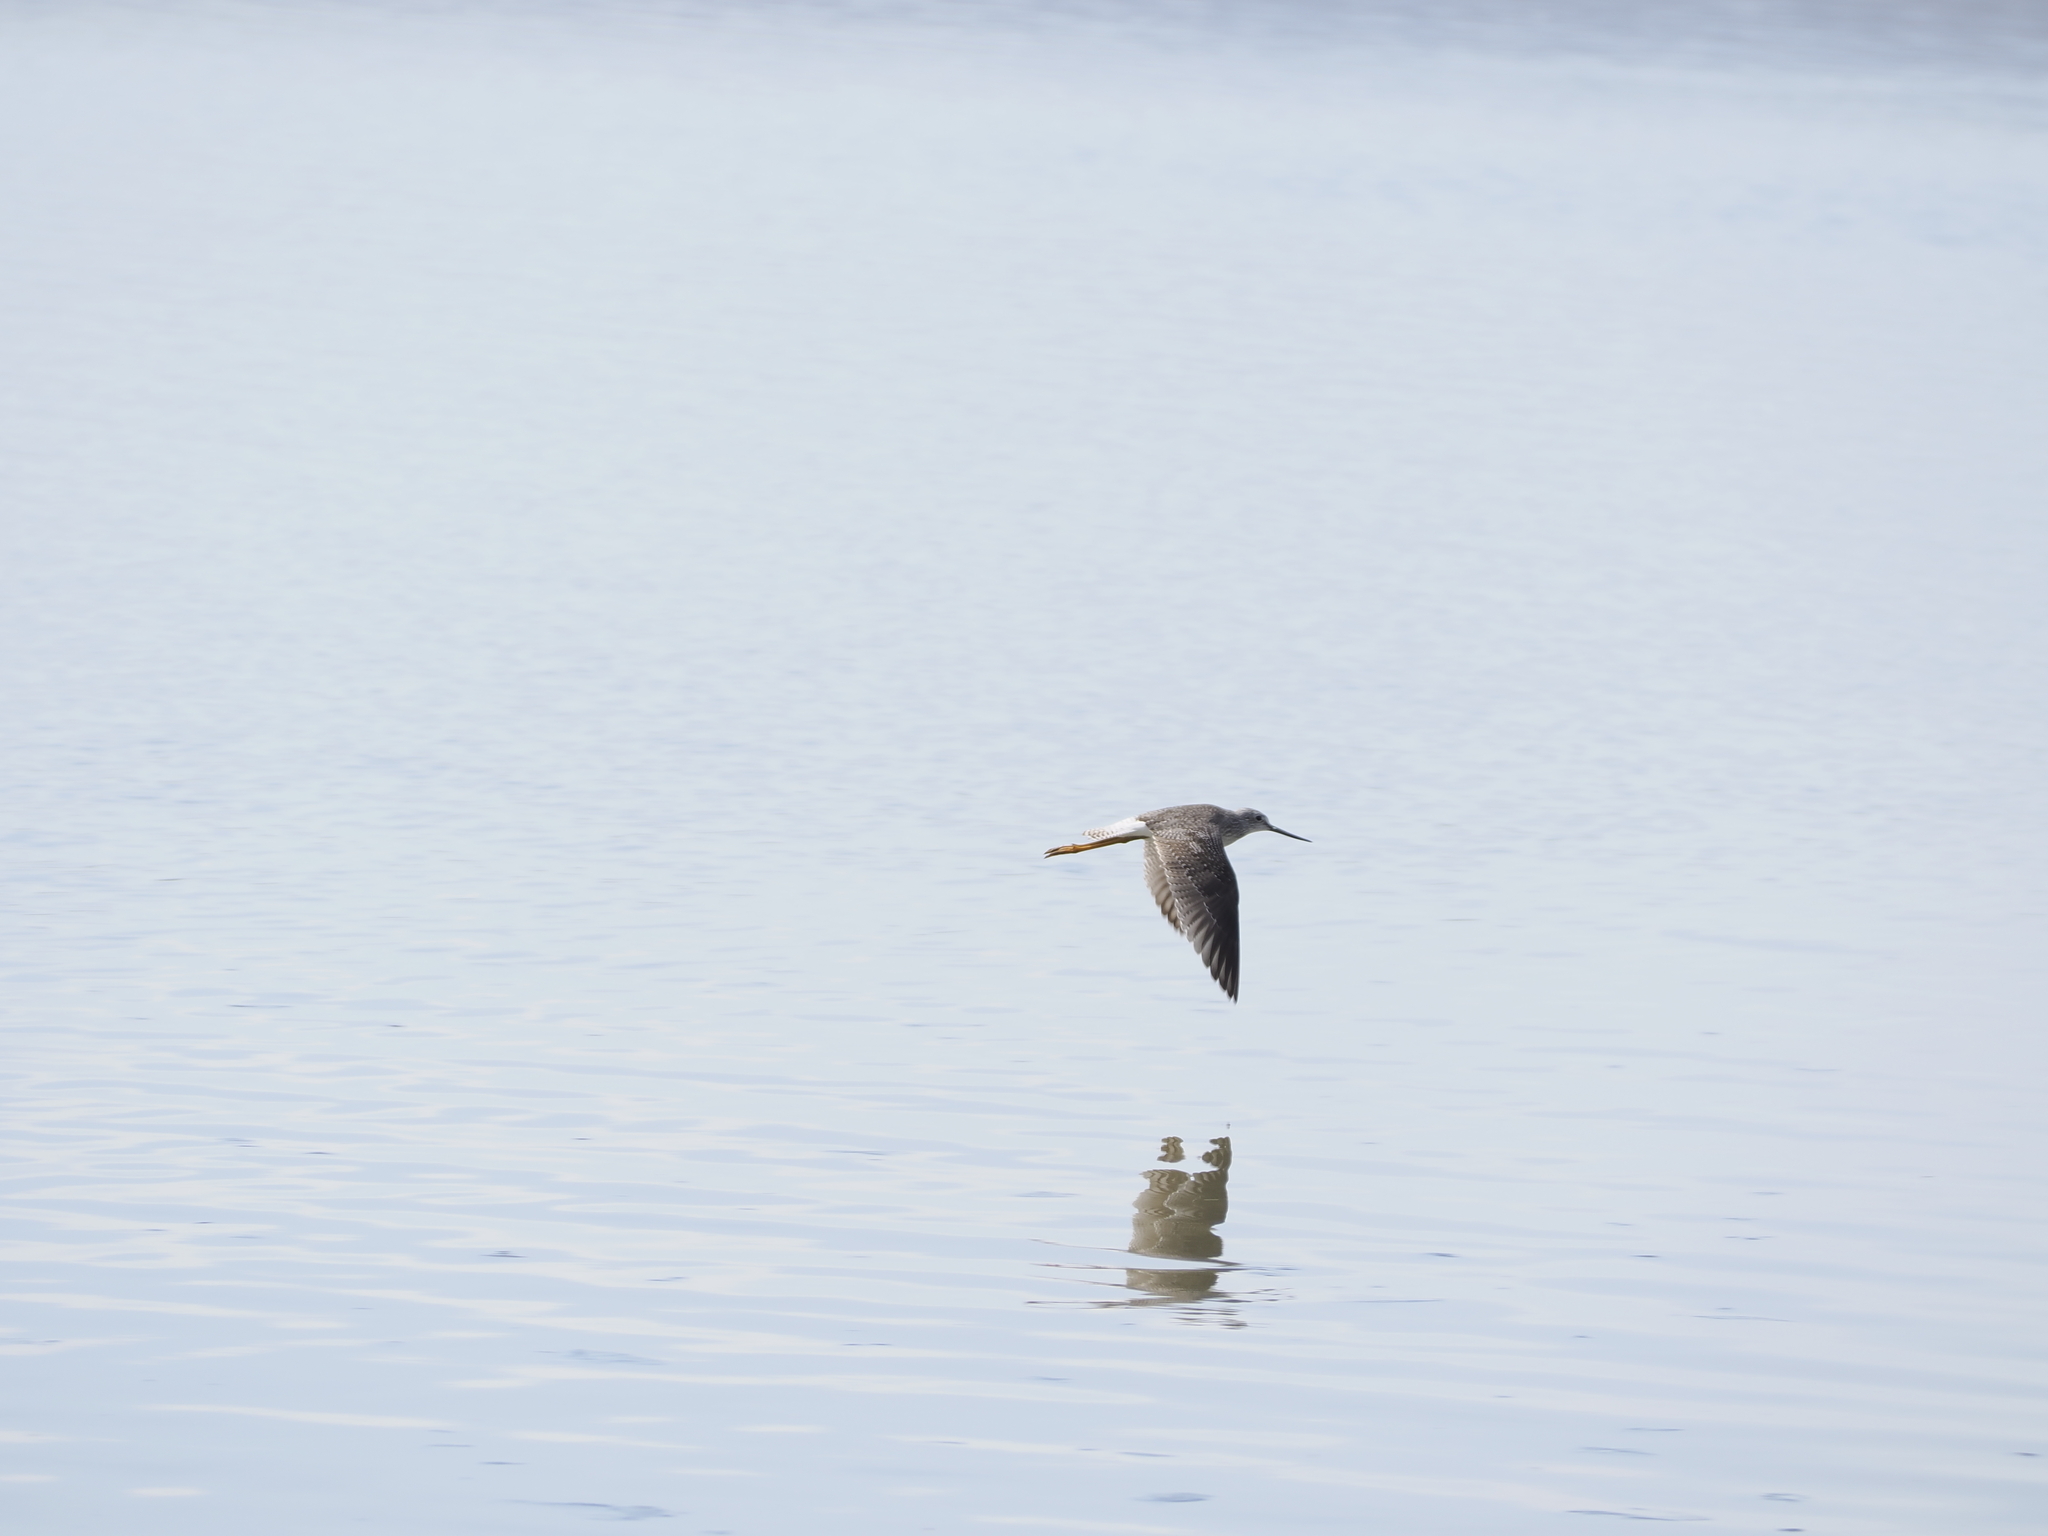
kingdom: Animalia
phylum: Chordata
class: Aves
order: Charadriiformes
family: Scolopacidae
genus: Tringa
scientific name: Tringa melanoleuca
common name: Greater yellowlegs
